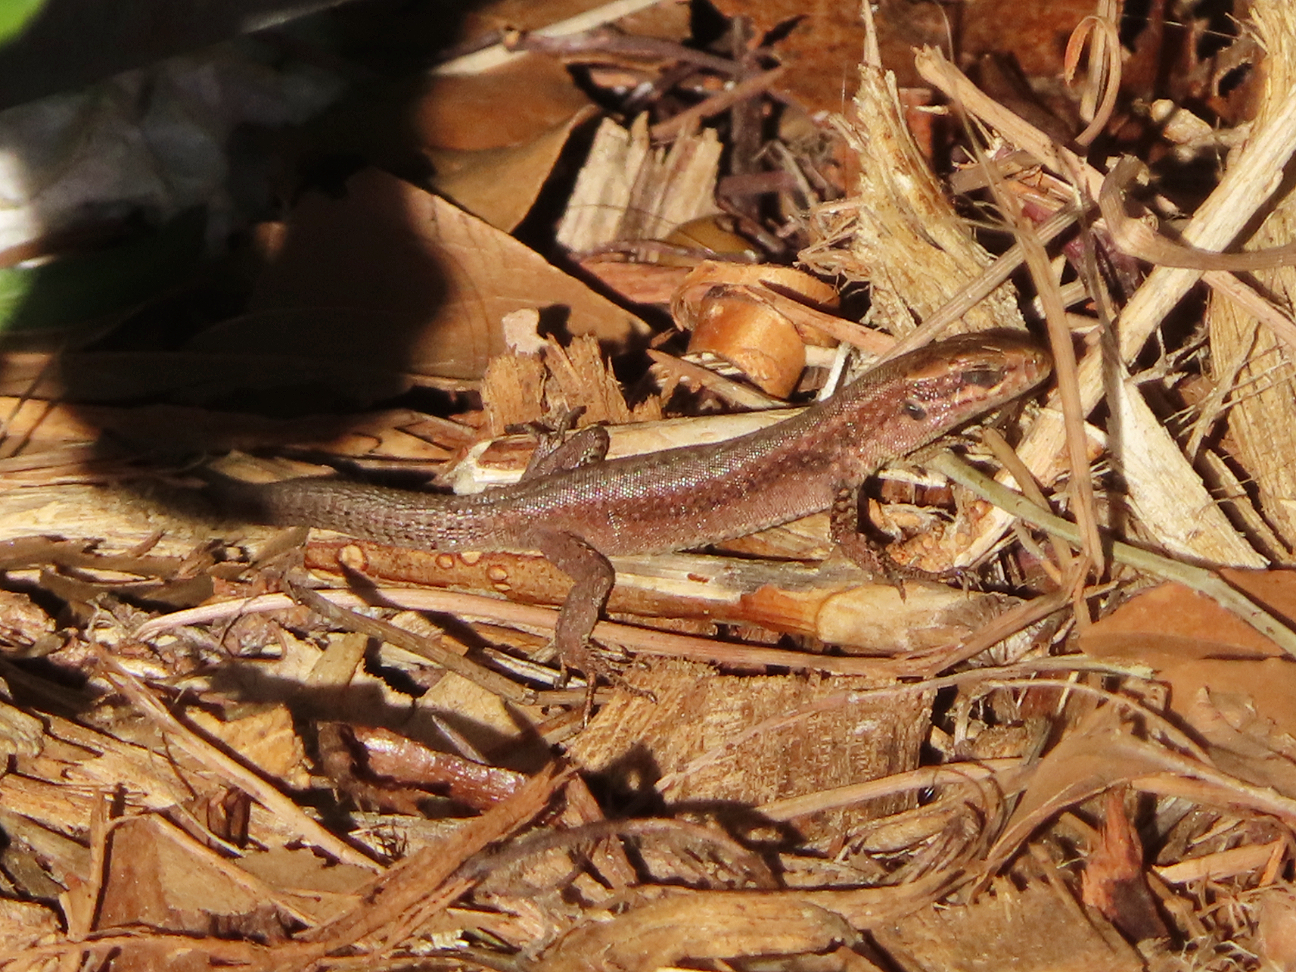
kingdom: Animalia
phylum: Chordata
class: Squamata
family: Lacertidae
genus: Podarcis
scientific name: Podarcis muralis
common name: Common wall lizard
